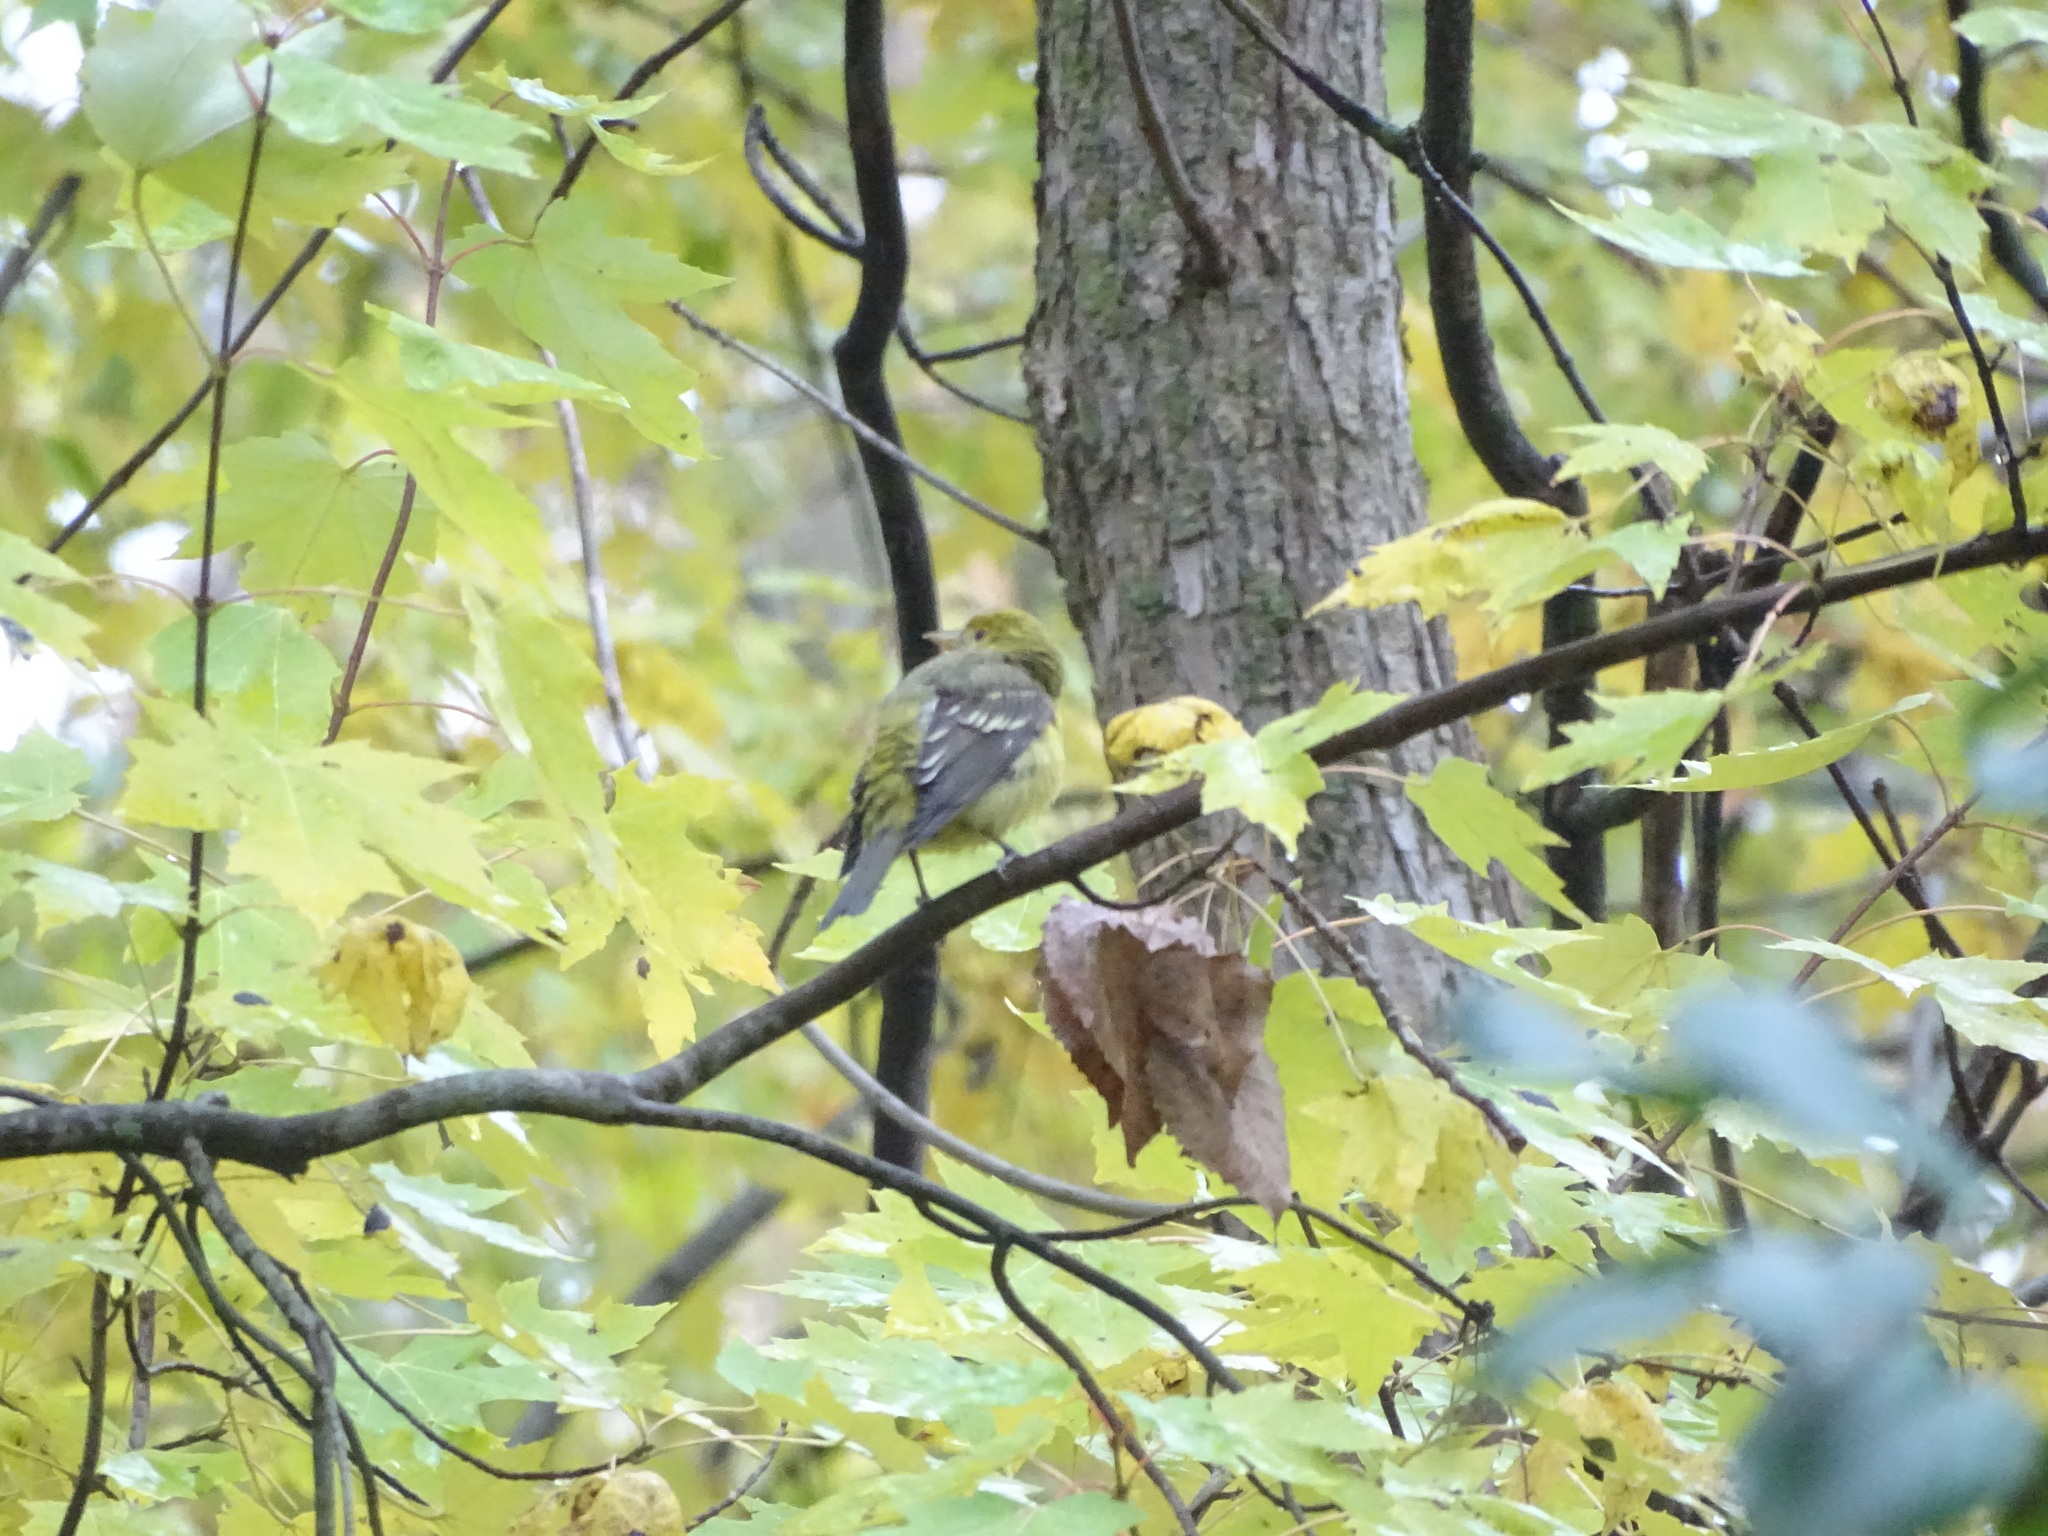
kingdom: Animalia
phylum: Chordata
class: Aves
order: Passeriformes
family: Cardinalidae
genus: Piranga
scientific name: Piranga ludoviciana
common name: Western tanager
